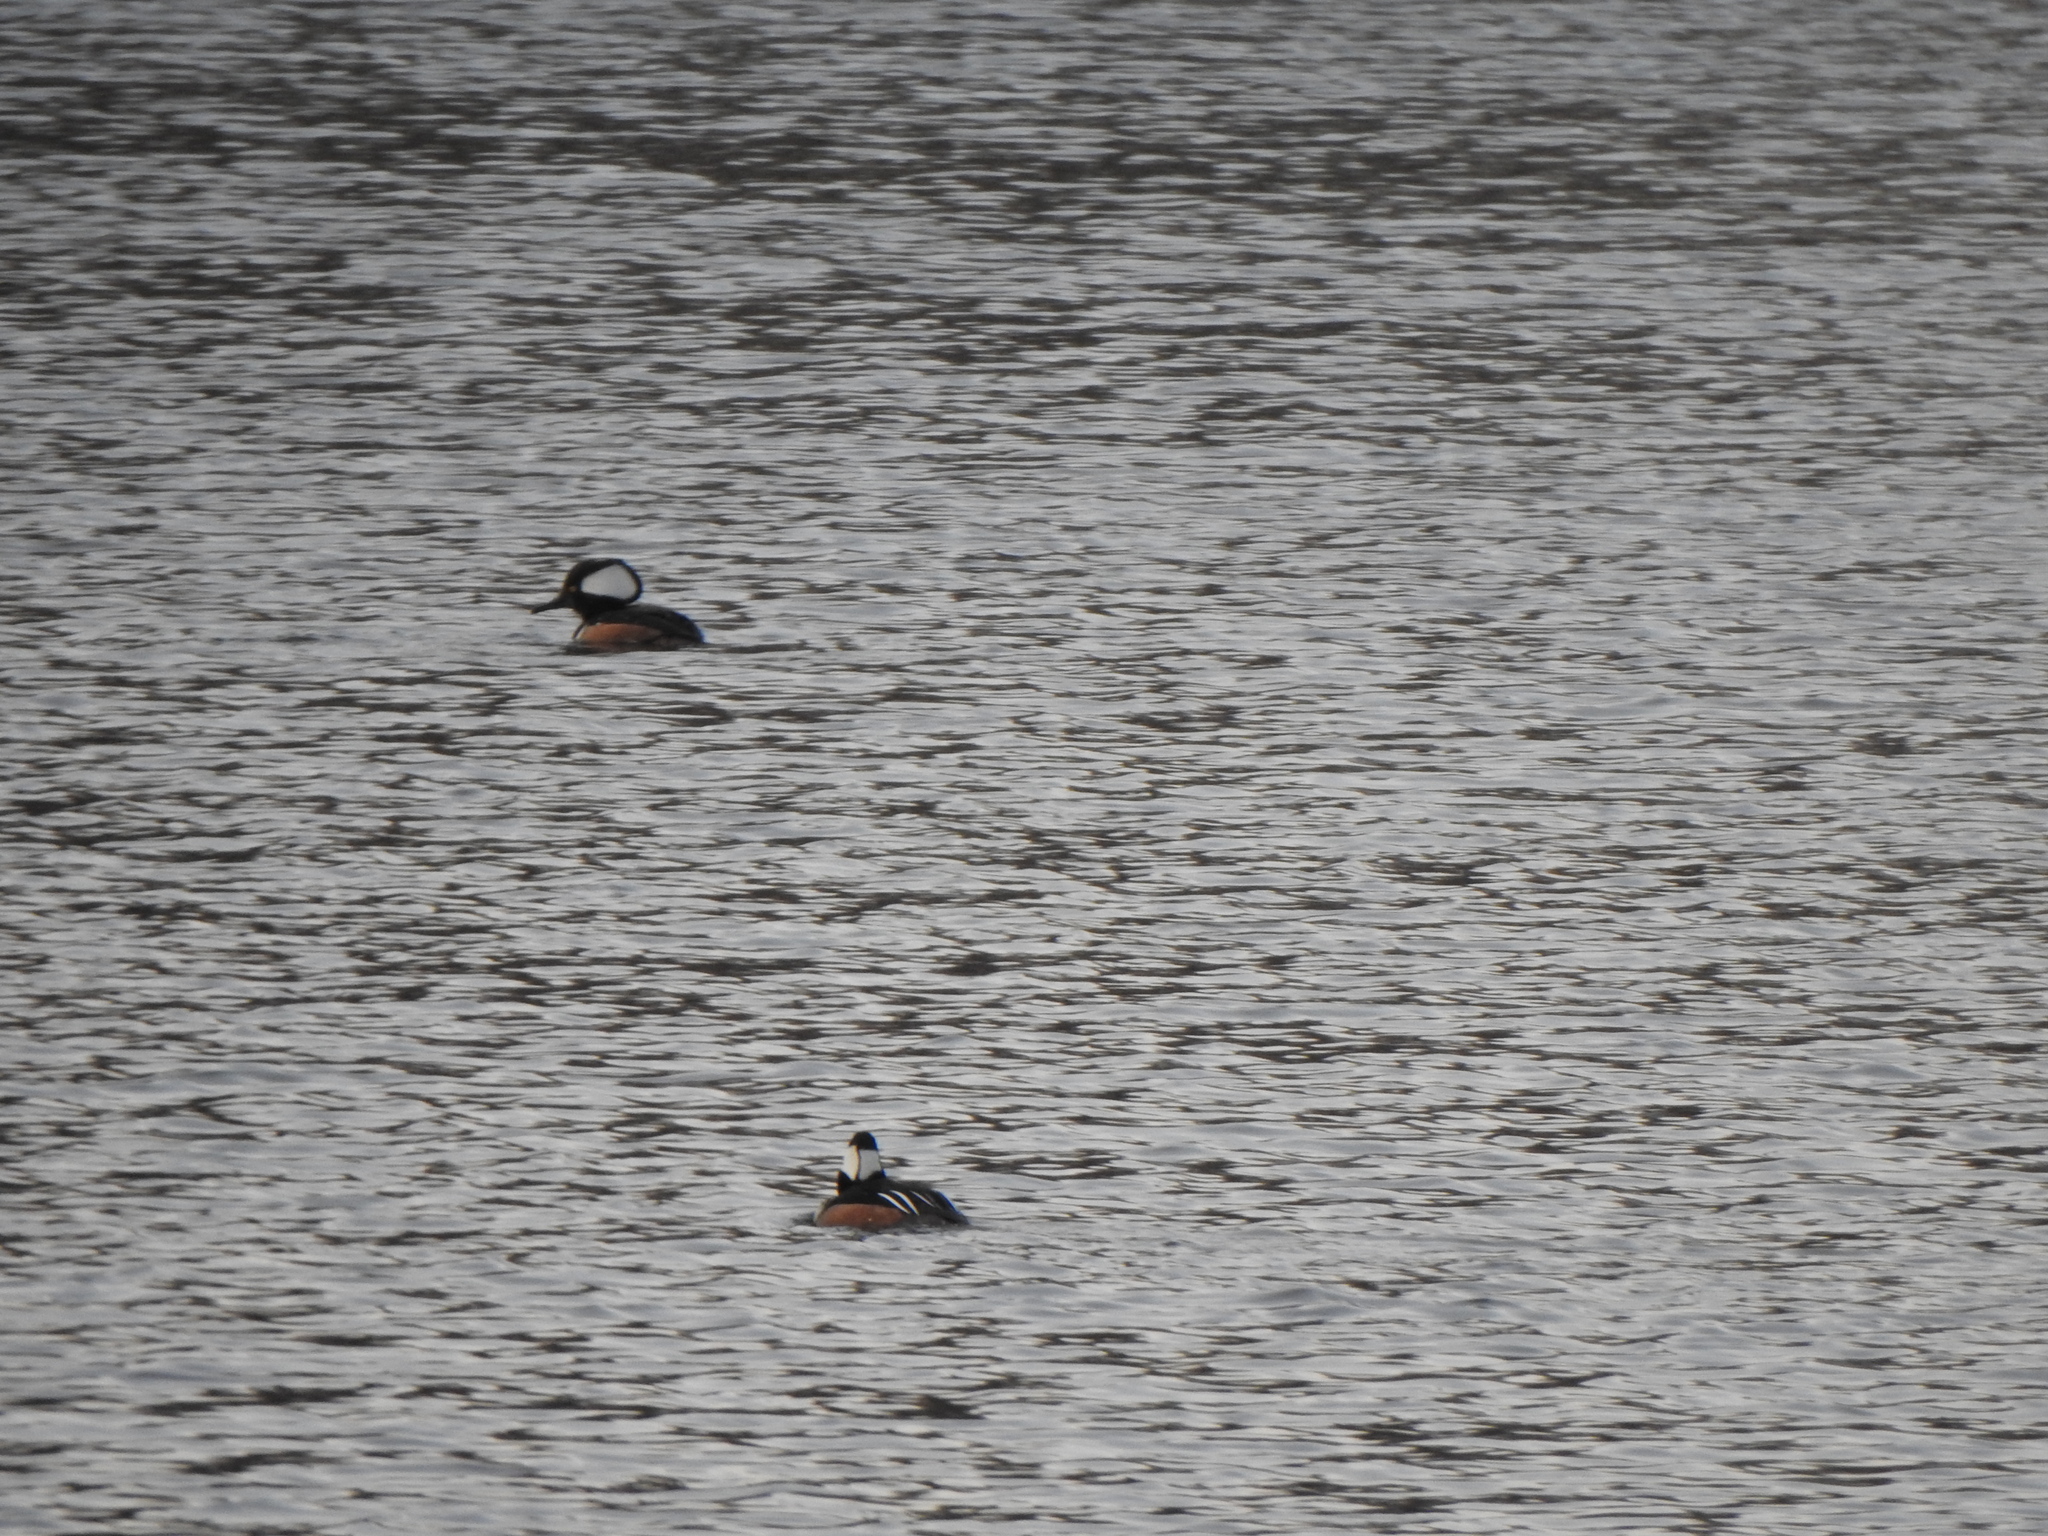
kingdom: Animalia
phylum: Chordata
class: Aves
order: Anseriformes
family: Anatidae
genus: Lophodytes
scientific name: Lophodytes cucullatus
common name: Hooded merganser
